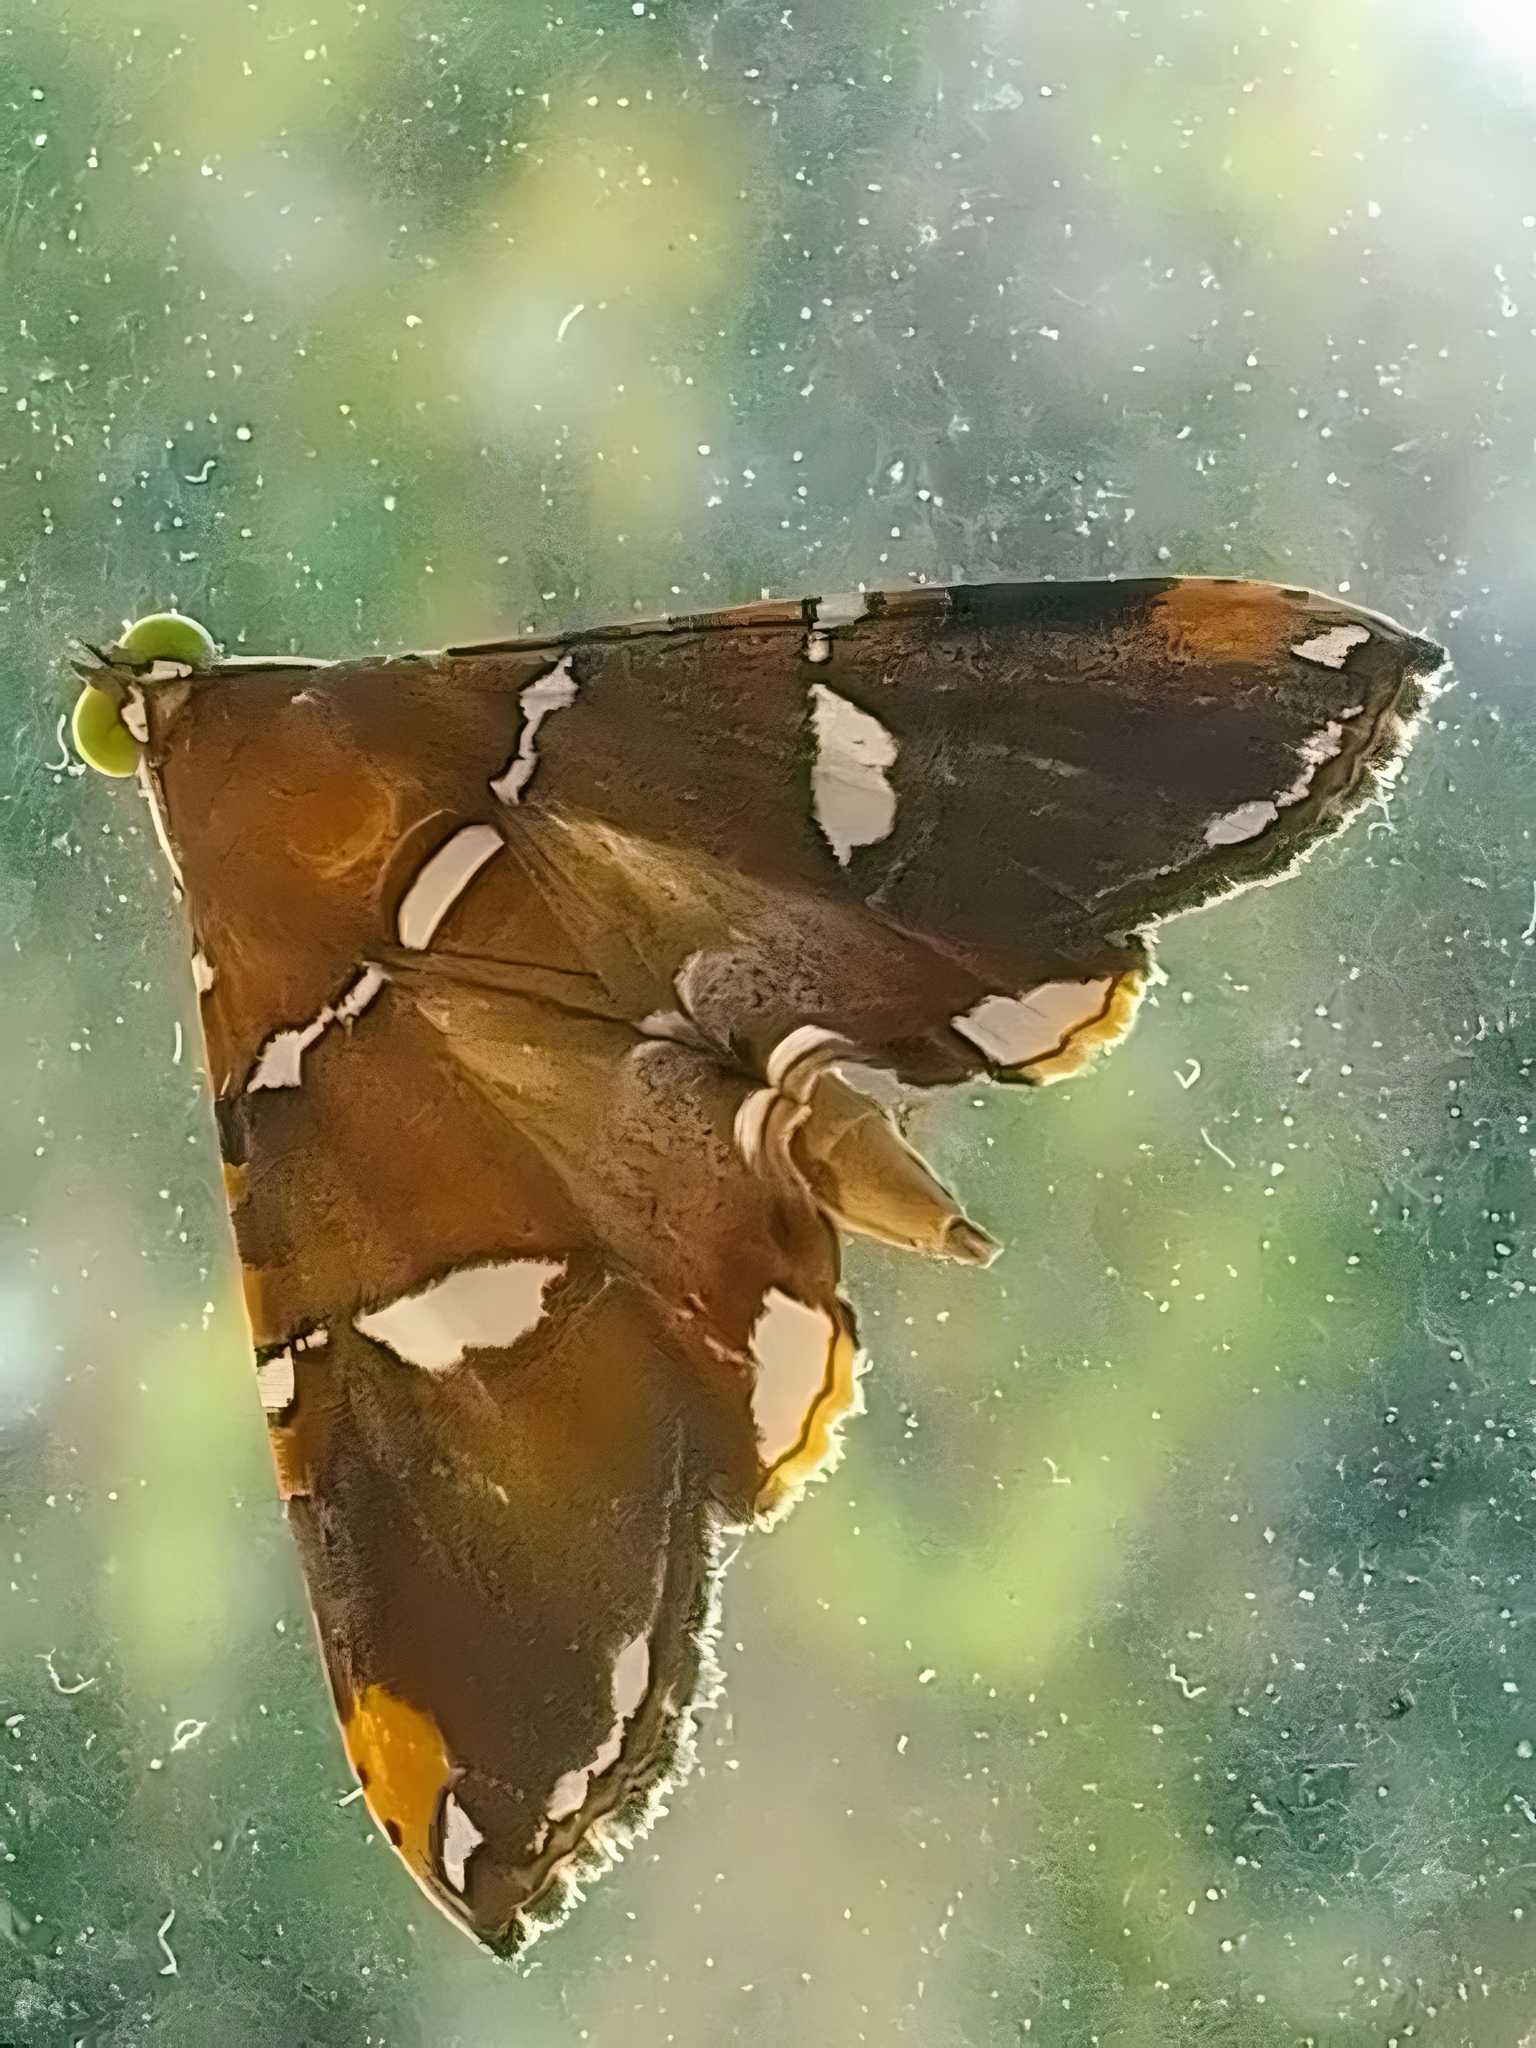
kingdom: Animalia
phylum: Arthropoda
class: Insecta
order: Lepidoptera
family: Erebidae
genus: Eulepidotis
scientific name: Eulepidotis perlata
